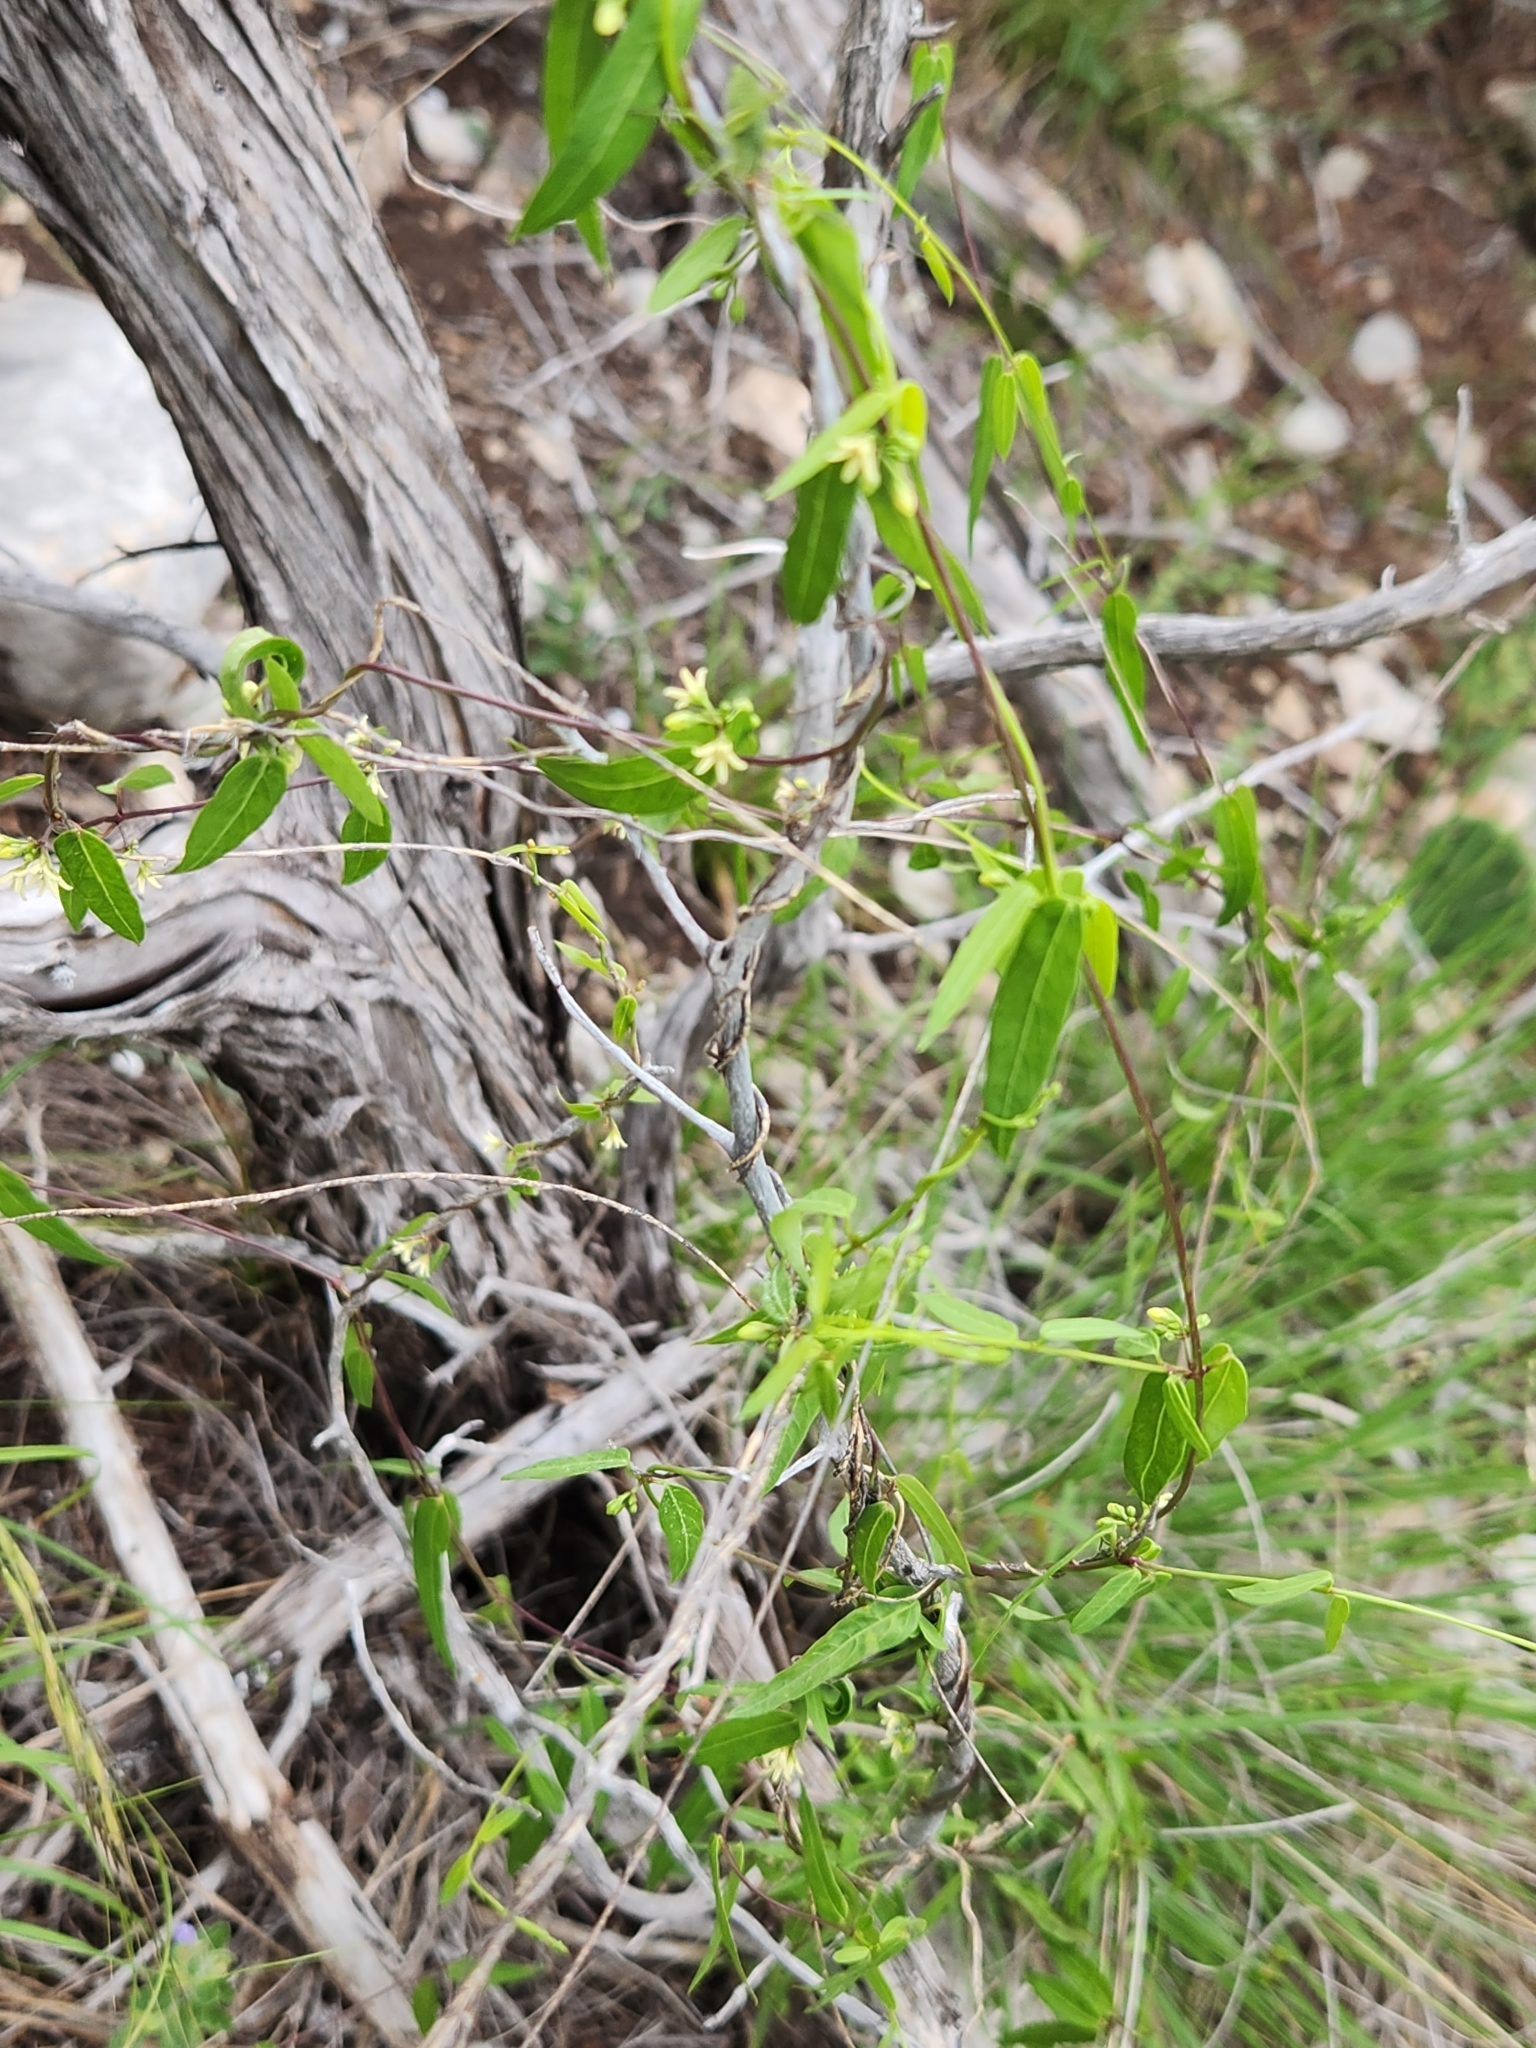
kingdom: Plantae
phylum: Tracheophyta
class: Magnoliopsida
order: Gentianales
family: Apocynaceae
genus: Metastelma
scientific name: Metastelma palmeri
